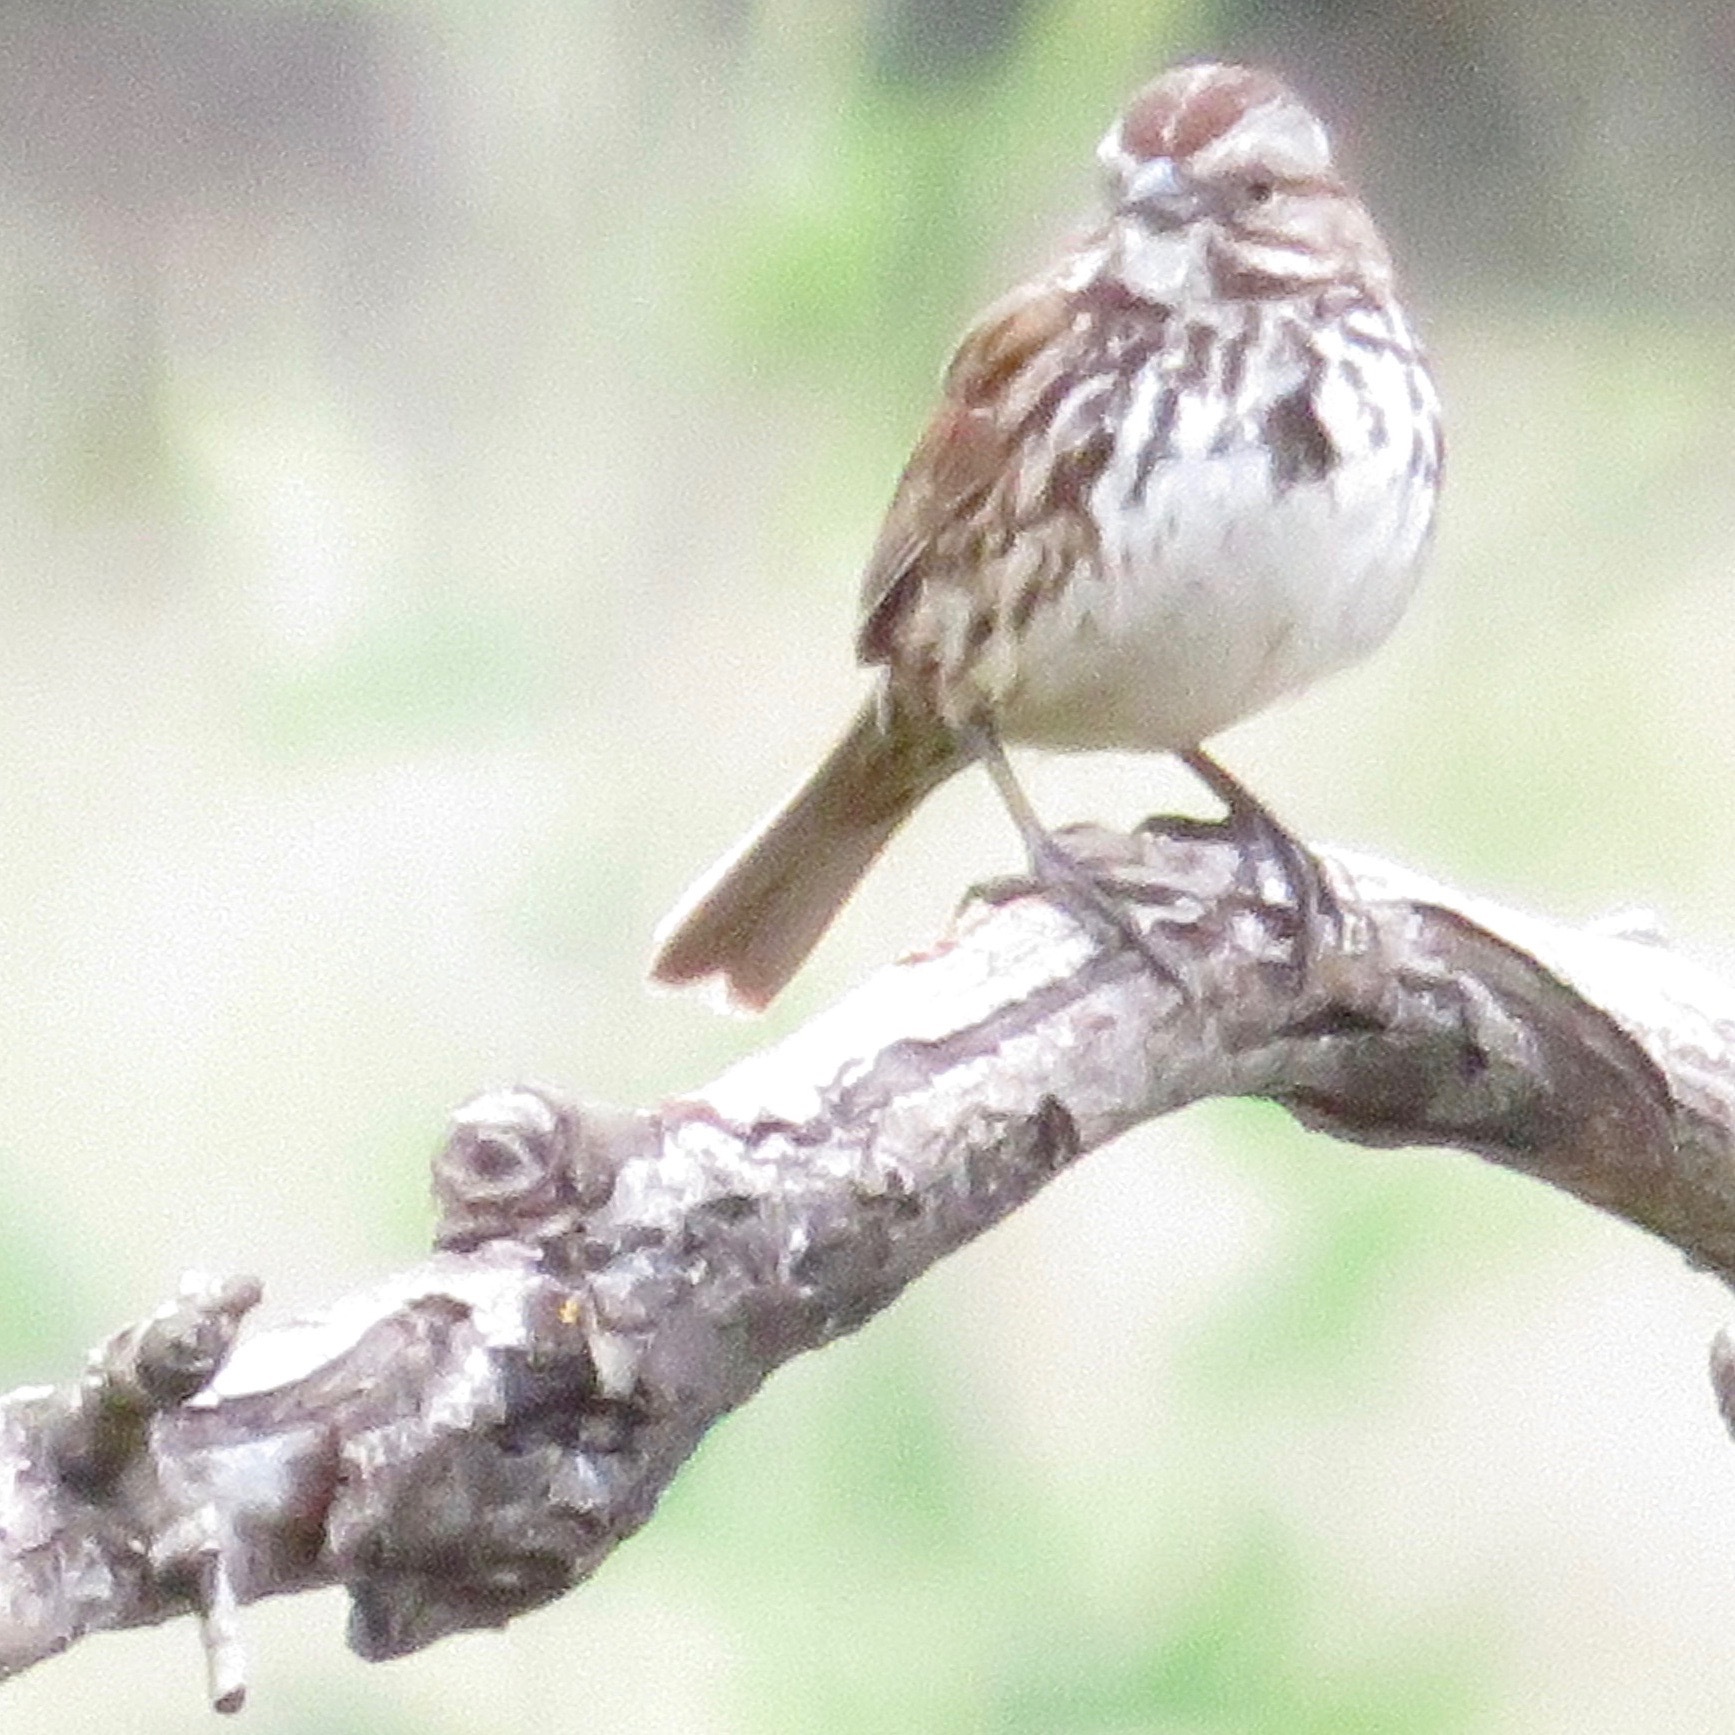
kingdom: Animalia
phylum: Chordata
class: Aves
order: Passeriformes
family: Passerellidae
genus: Melospiza
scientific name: Melospiza melodia
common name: Song sparrow
